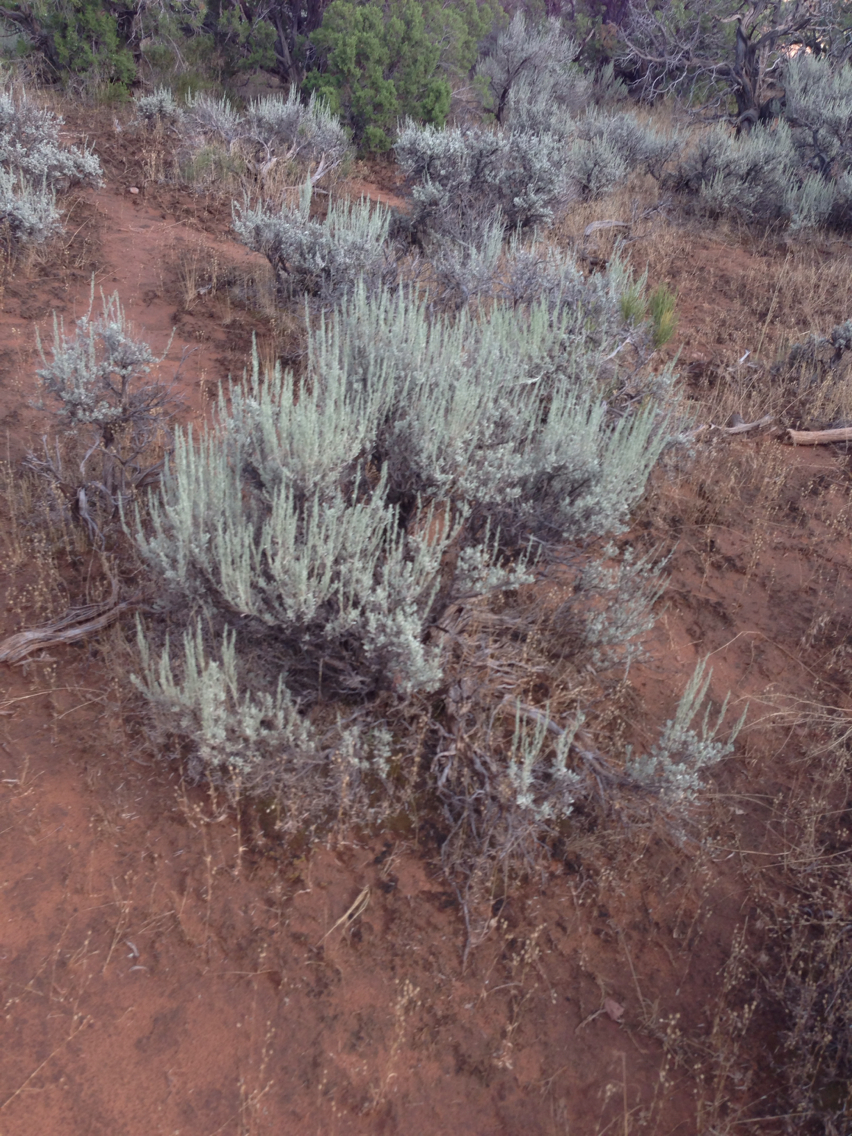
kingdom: Plantae
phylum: Tracheophyta
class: Magnoliopsida
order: Asterales
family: Asteraceae
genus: Artemisia
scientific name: Artemisia tridentata
